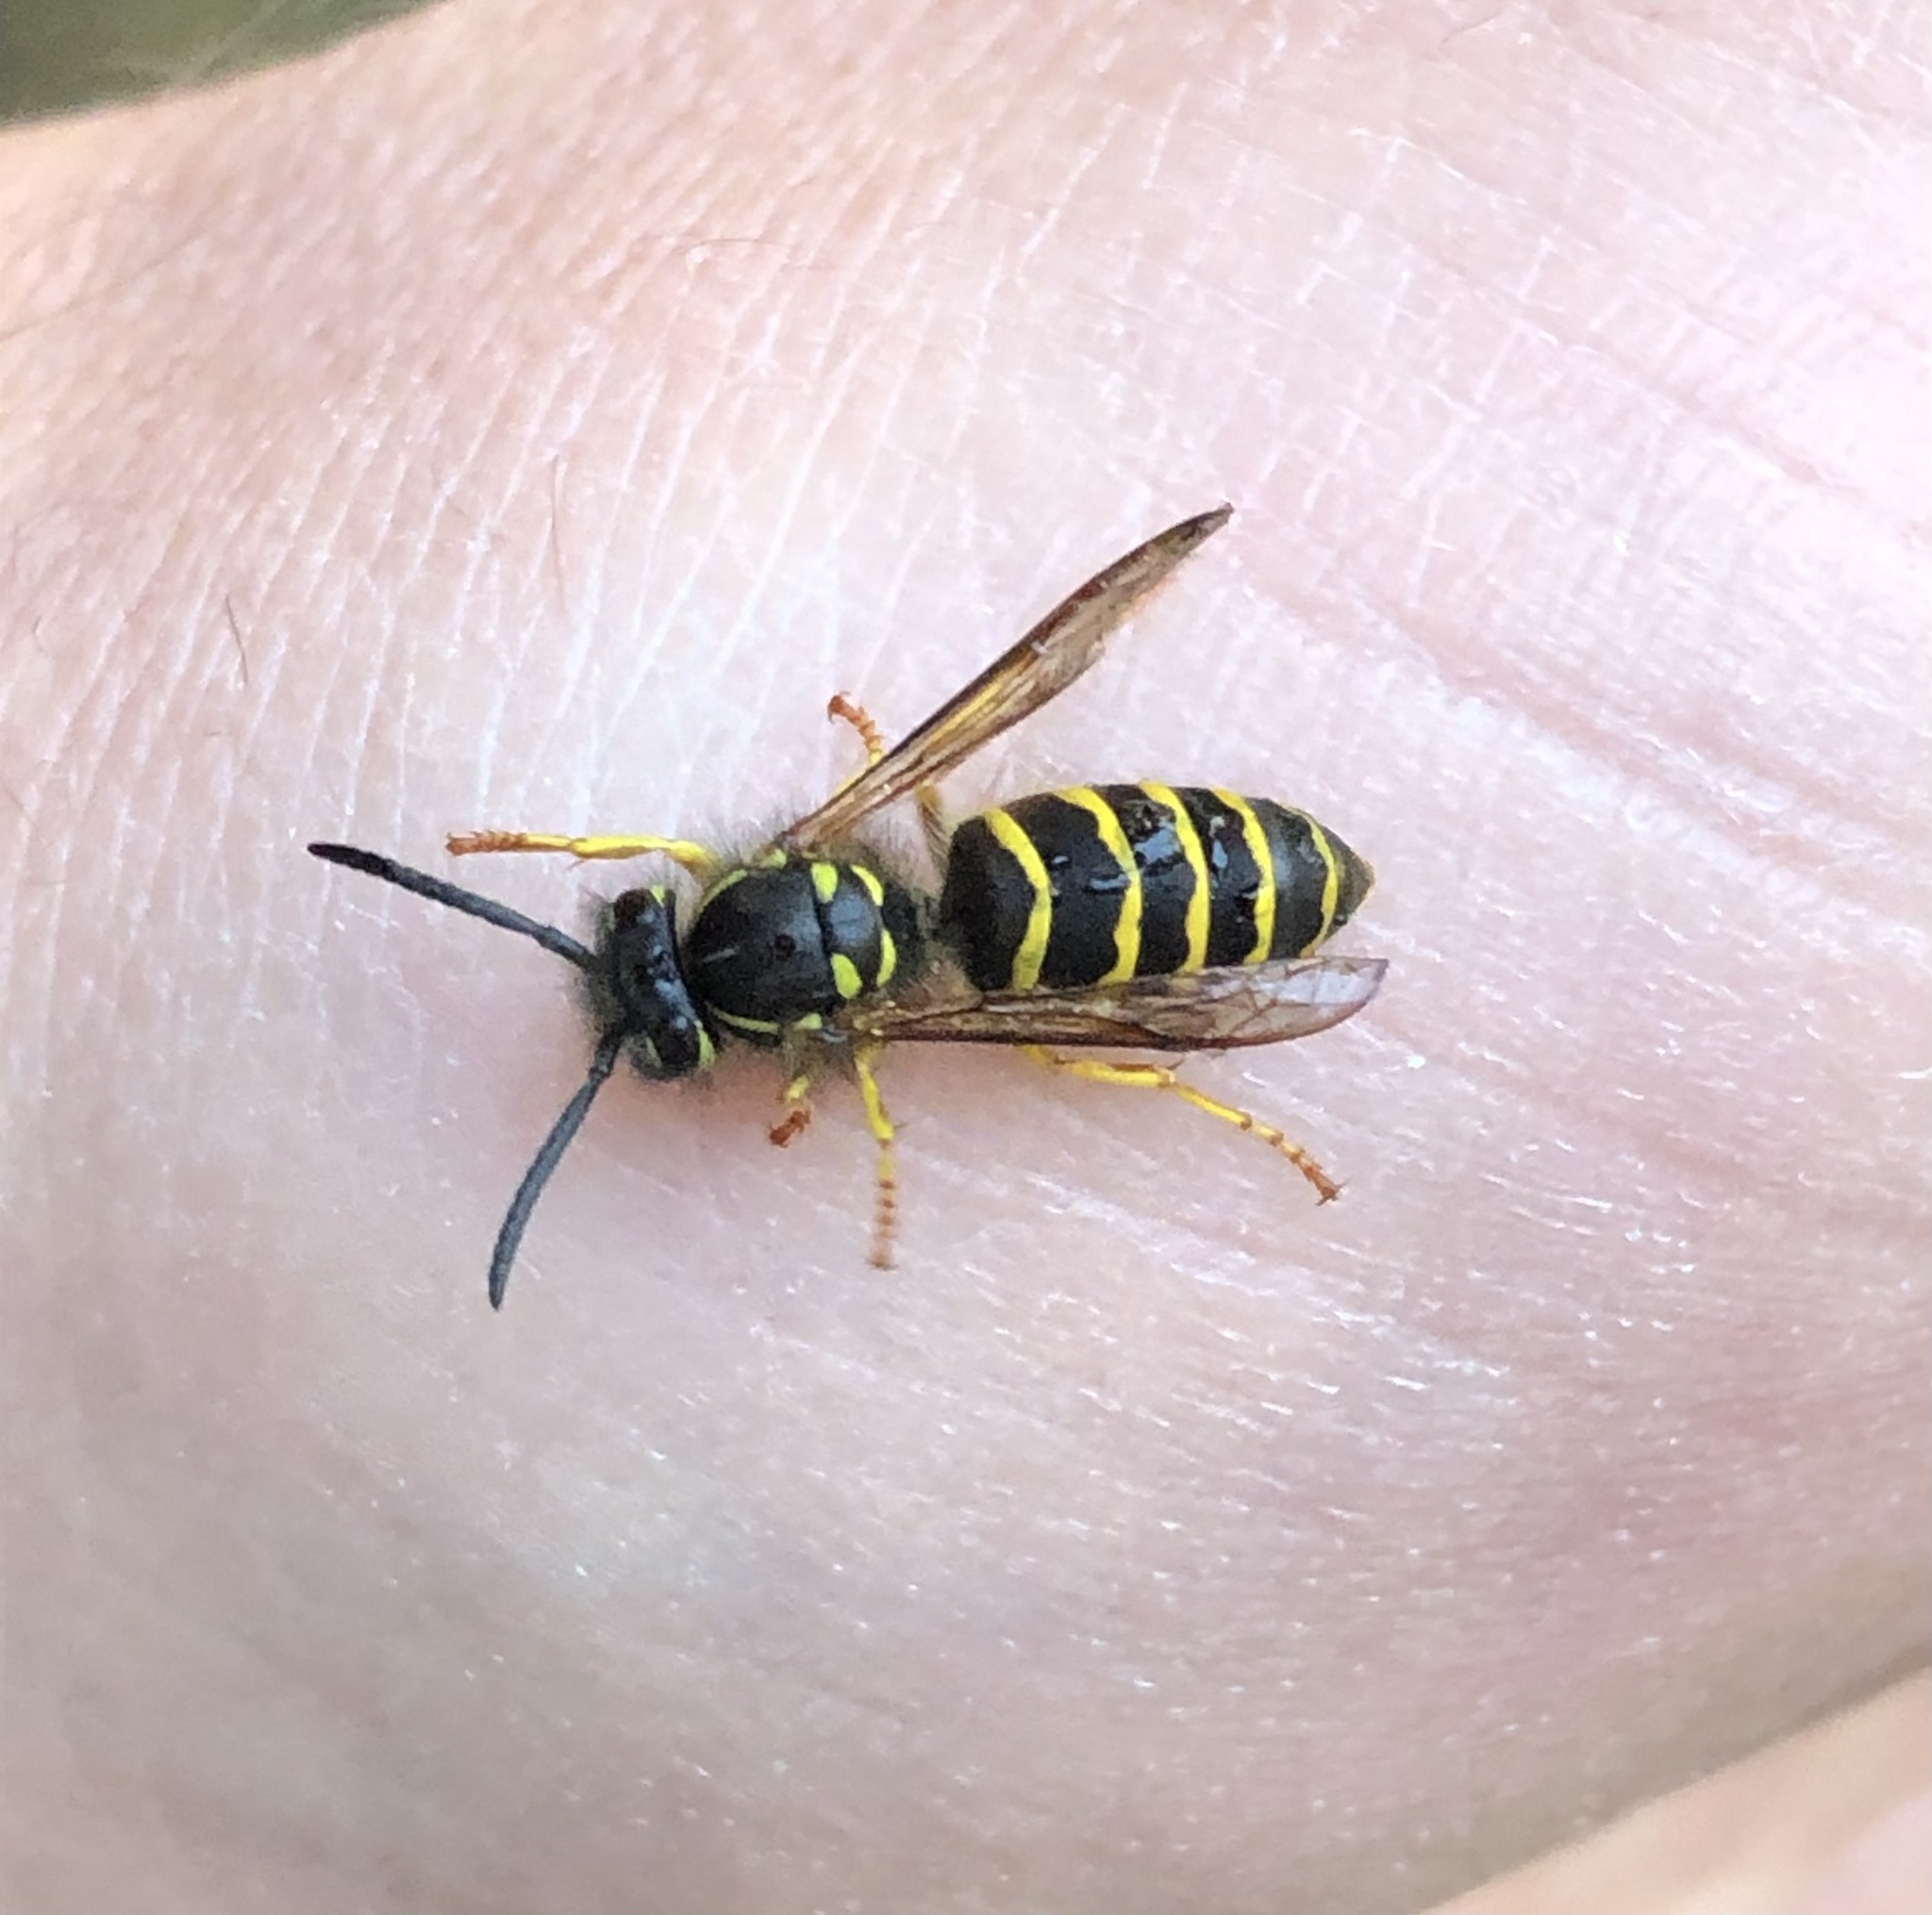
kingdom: Animalia
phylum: Arthropoda
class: Insecta
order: Hymenoptera
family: Vespidae
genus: Vespula
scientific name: Vespula alascensis
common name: Alaska yellowjacket
